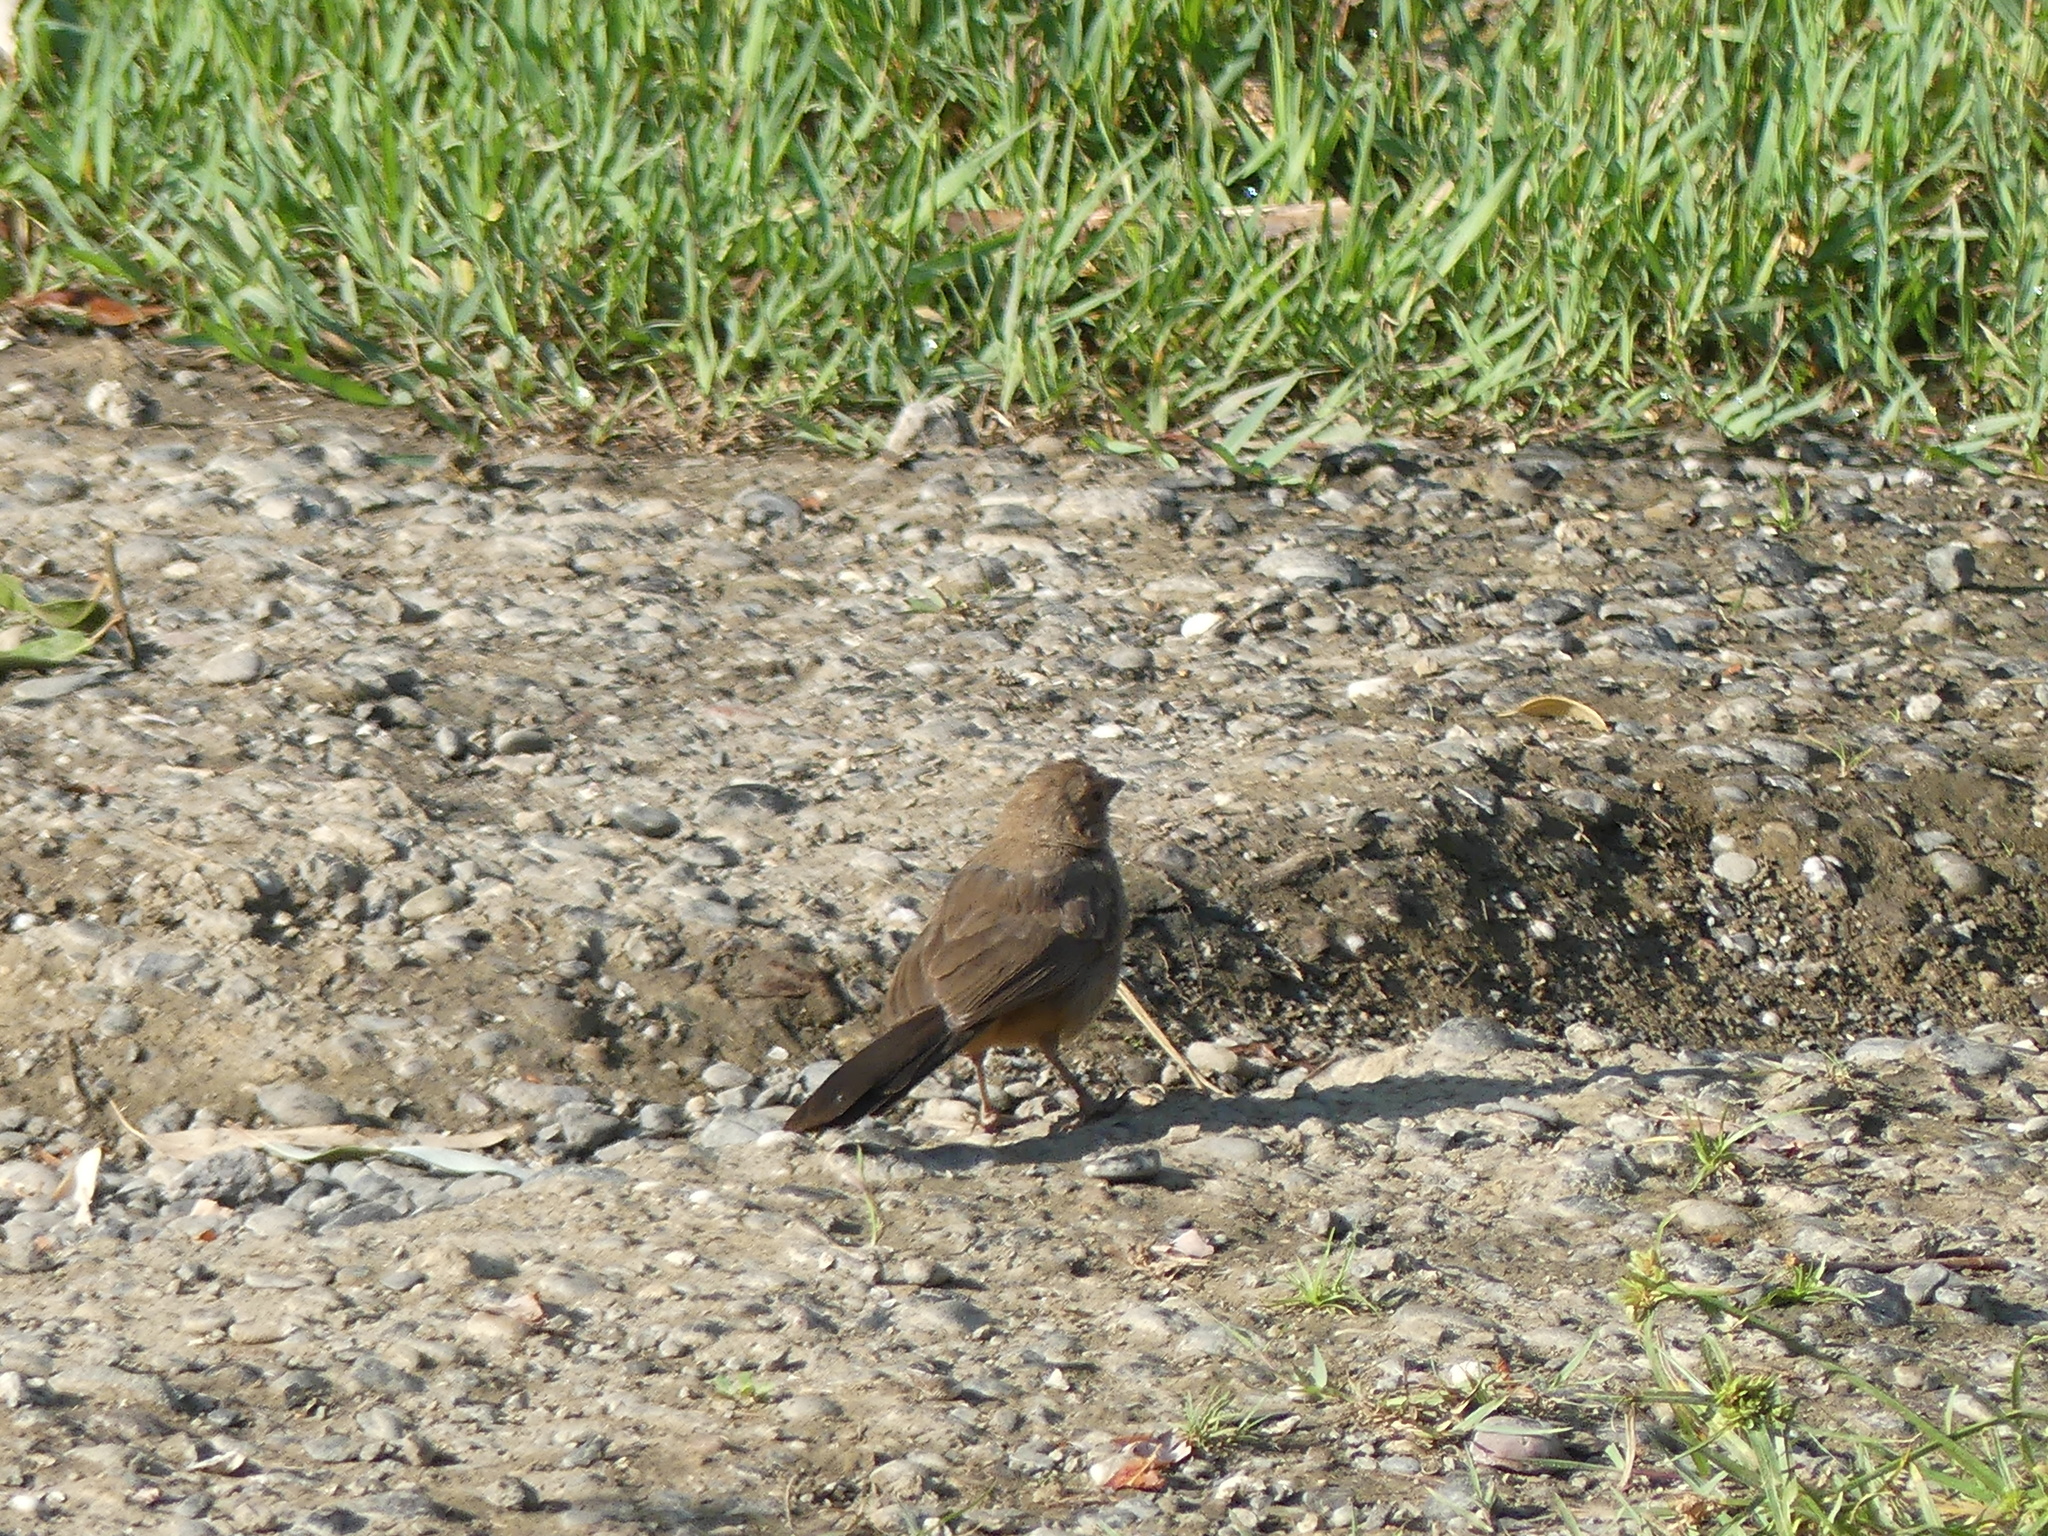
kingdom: Animalia
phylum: Chordata
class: Aves
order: Passeriformes
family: Passerellidae
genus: Melozone
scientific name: Melozone crissalis
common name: California towhee
